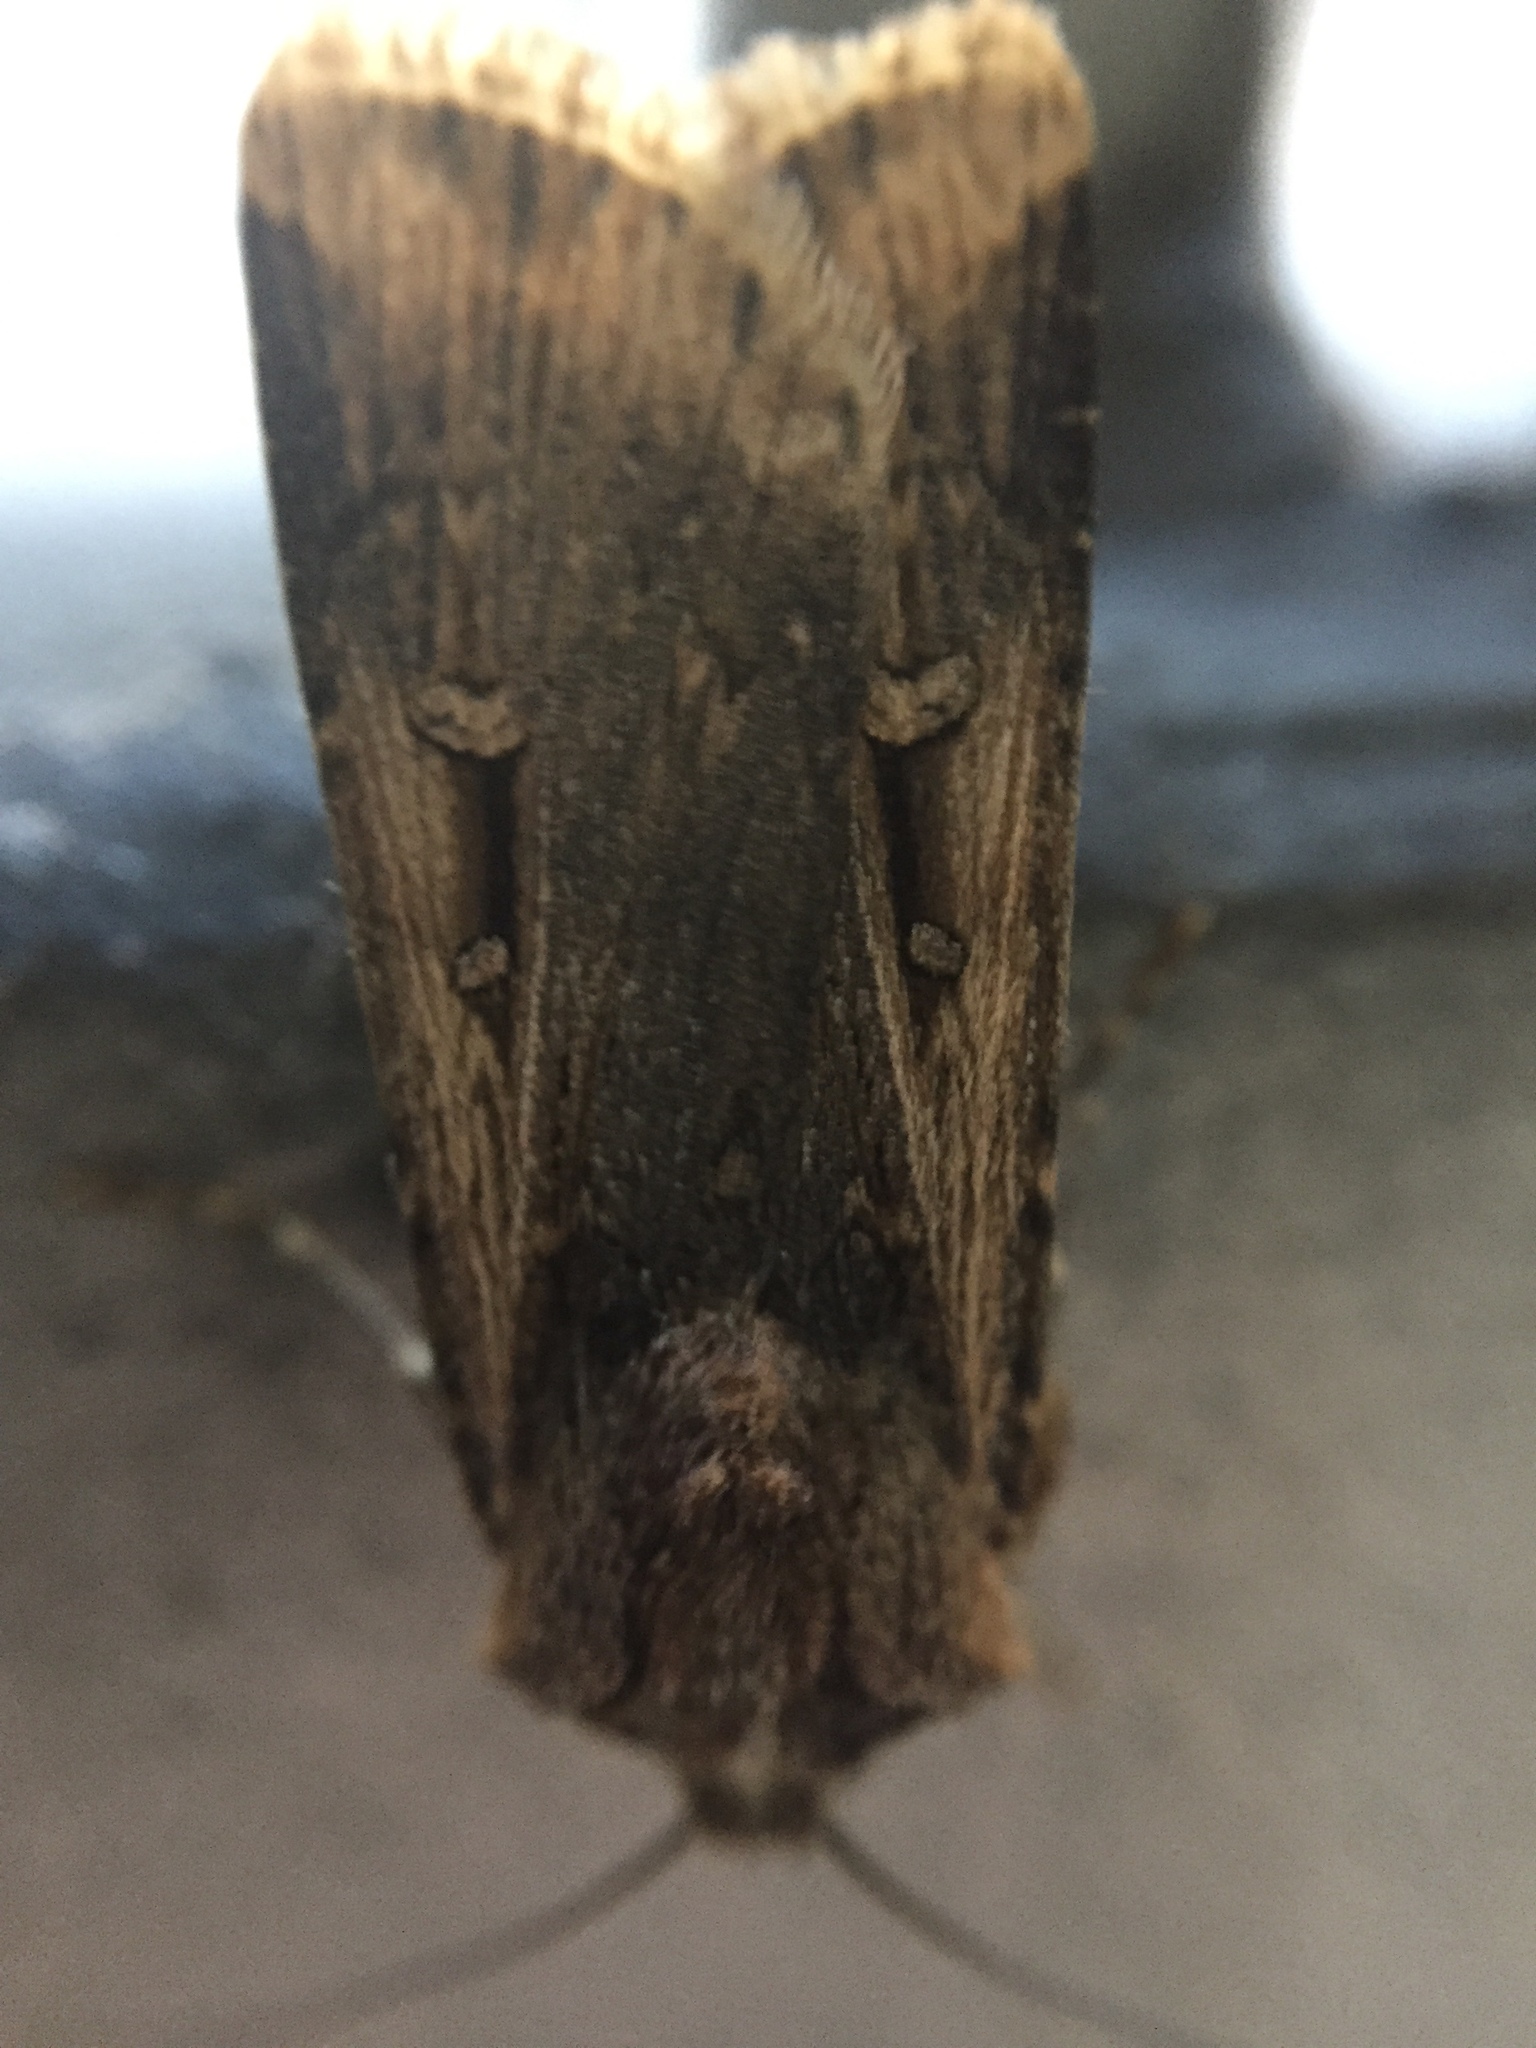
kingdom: Animalia
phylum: Arthropoda
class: Insecta
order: Lepidoptera
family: Noctuidae
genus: Feltia
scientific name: Feltia subterranea
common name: Granulate cutworm
